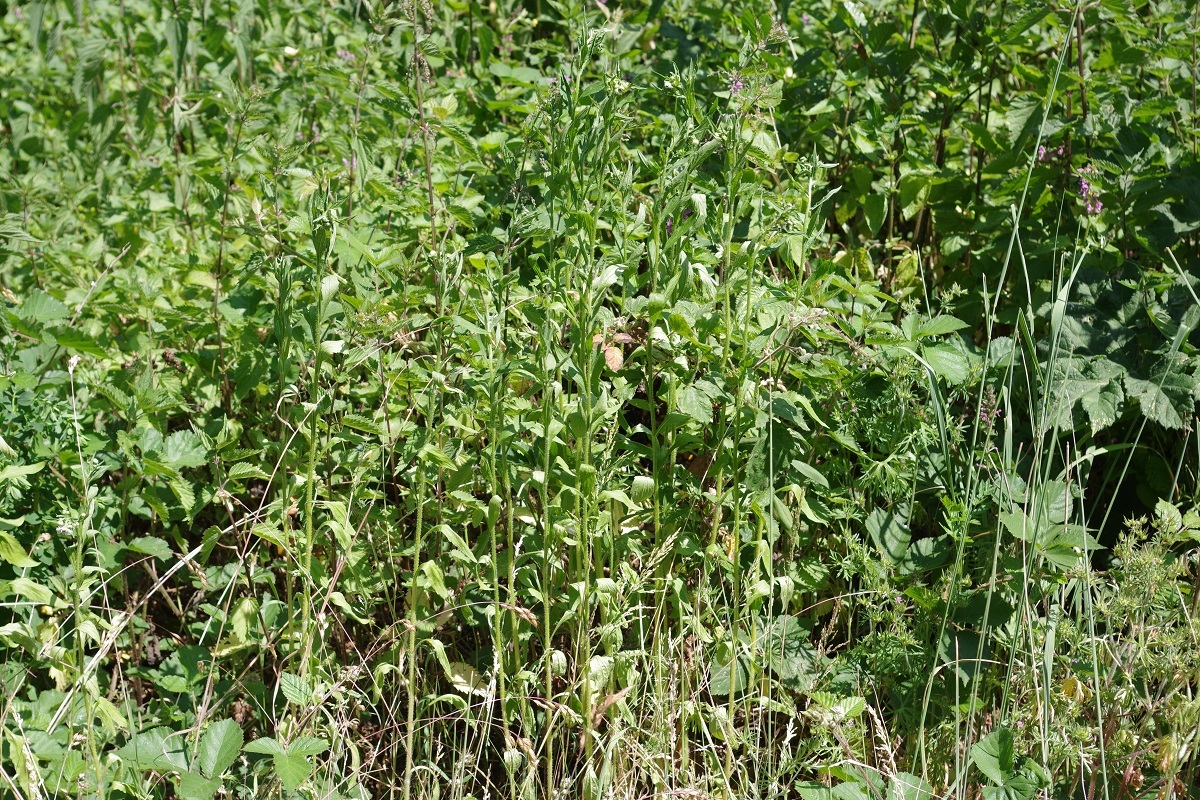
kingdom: Plantae
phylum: Tracheophyta
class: Magnoliopsida
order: Asterales
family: Asteraceae
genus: Erigeron
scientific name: Erigeron annuus
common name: Tall fleabane
